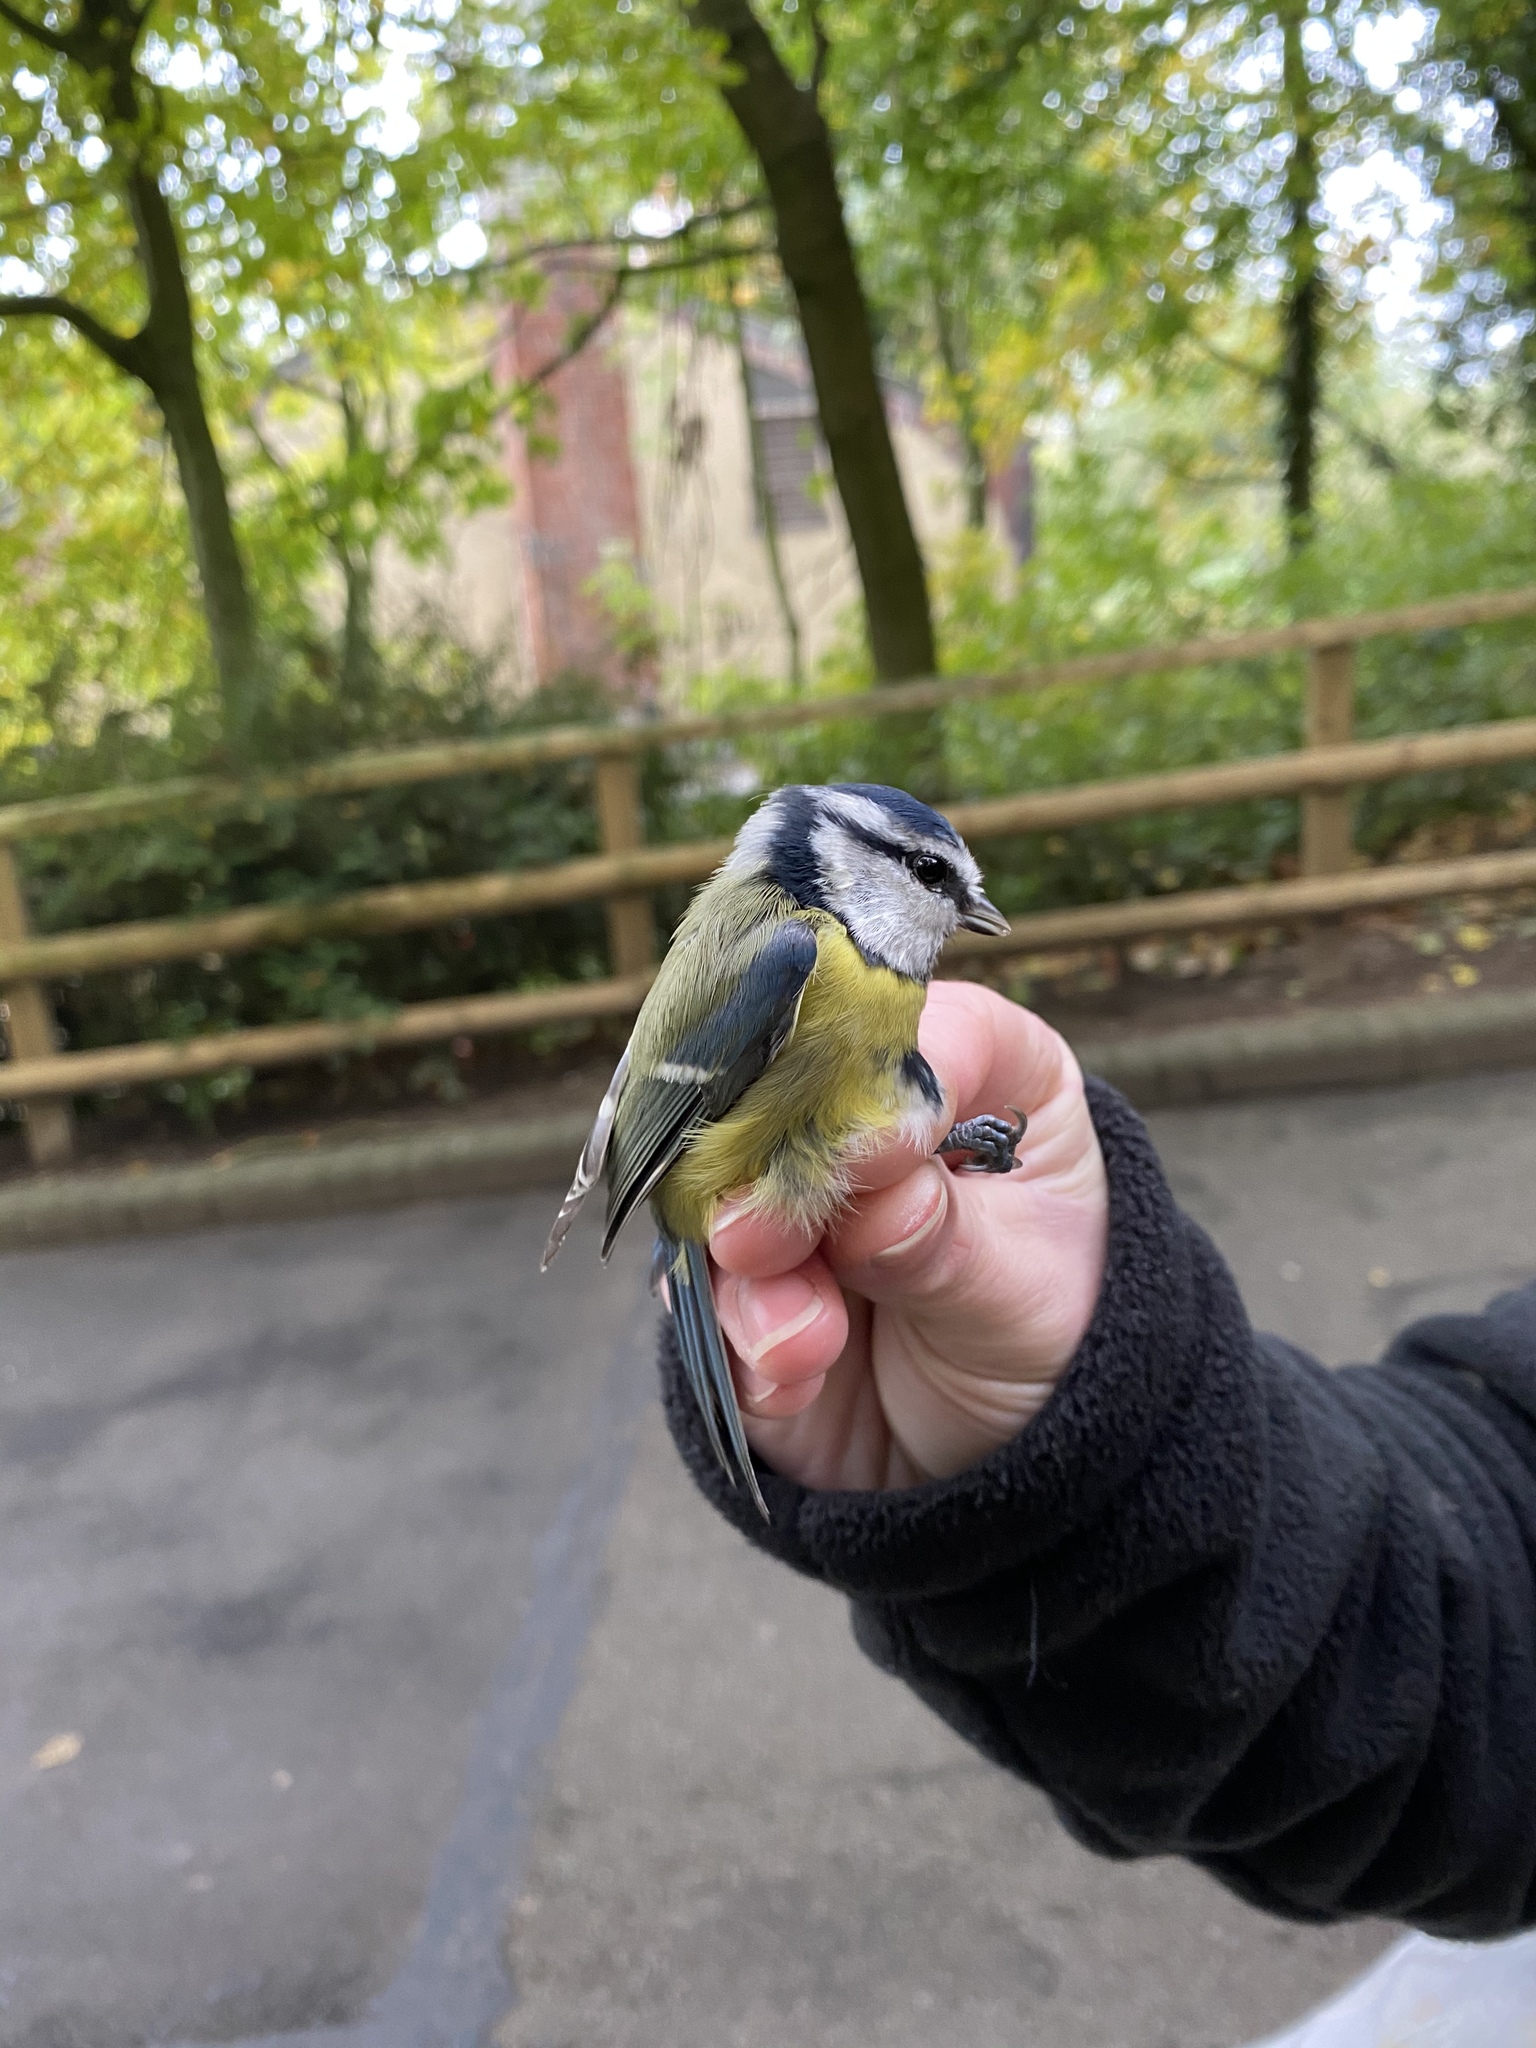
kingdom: Animalia
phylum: Chordata
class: Aves
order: Passeriformes
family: Paridae
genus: Cyanistes
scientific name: Cyanistes caeruleus
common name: Eurasian blue tit
